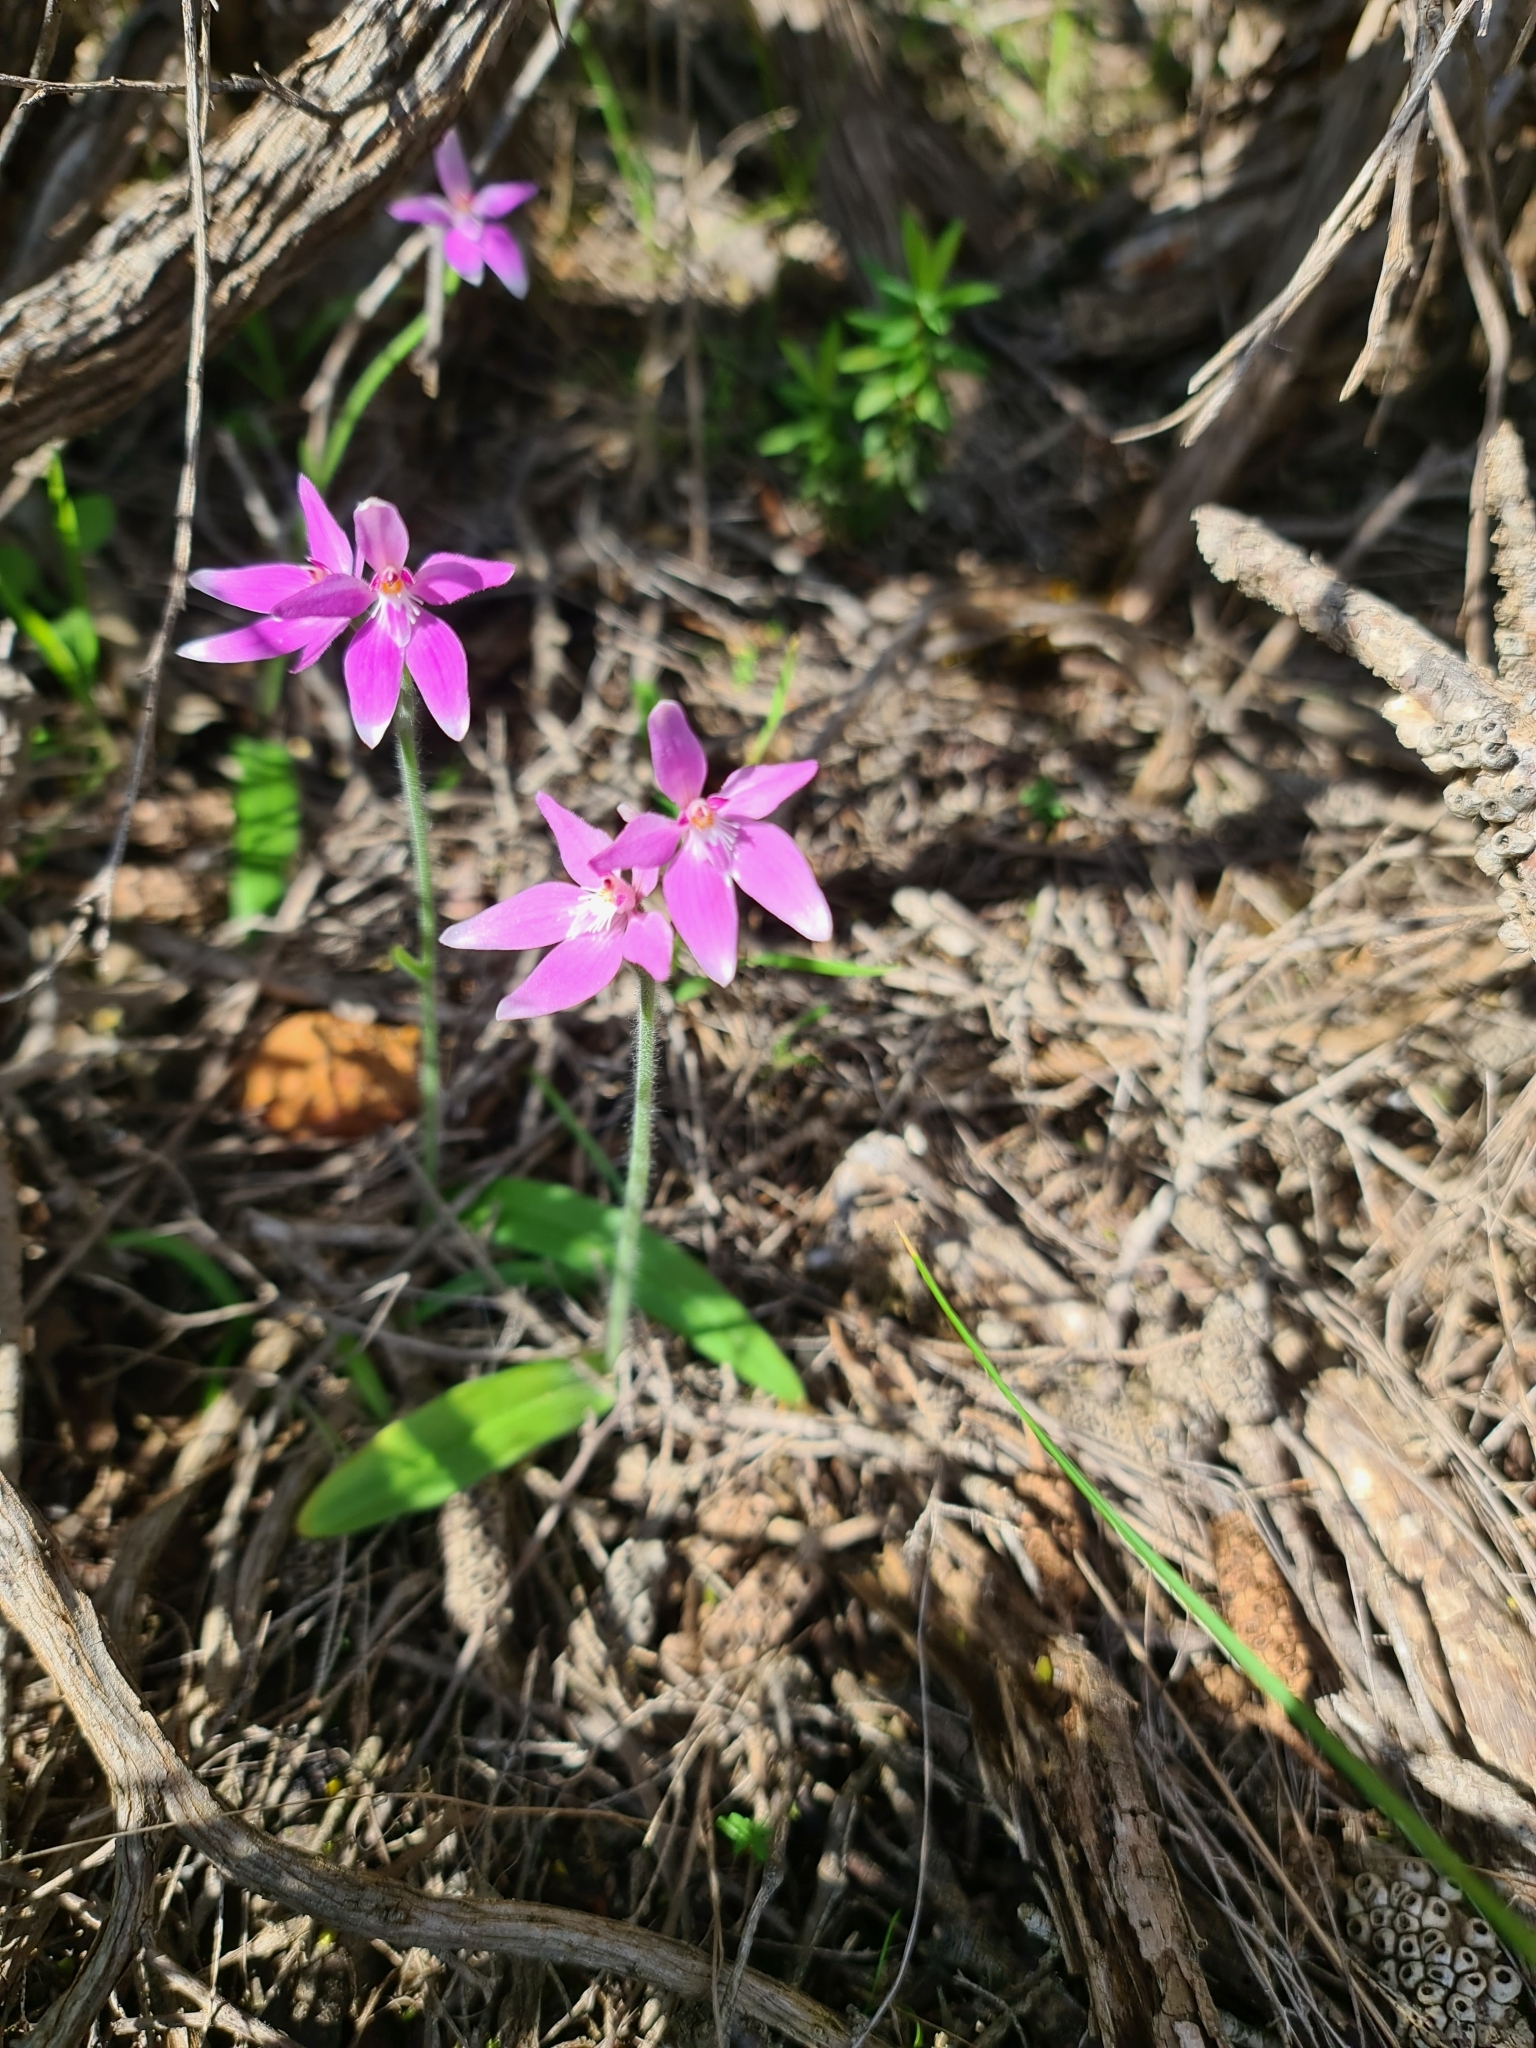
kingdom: Plantae
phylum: Tracheophyta
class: Liliopsida
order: Asparagales
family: Orchidaceae
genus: Caladenia
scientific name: Caladenia latifolia
